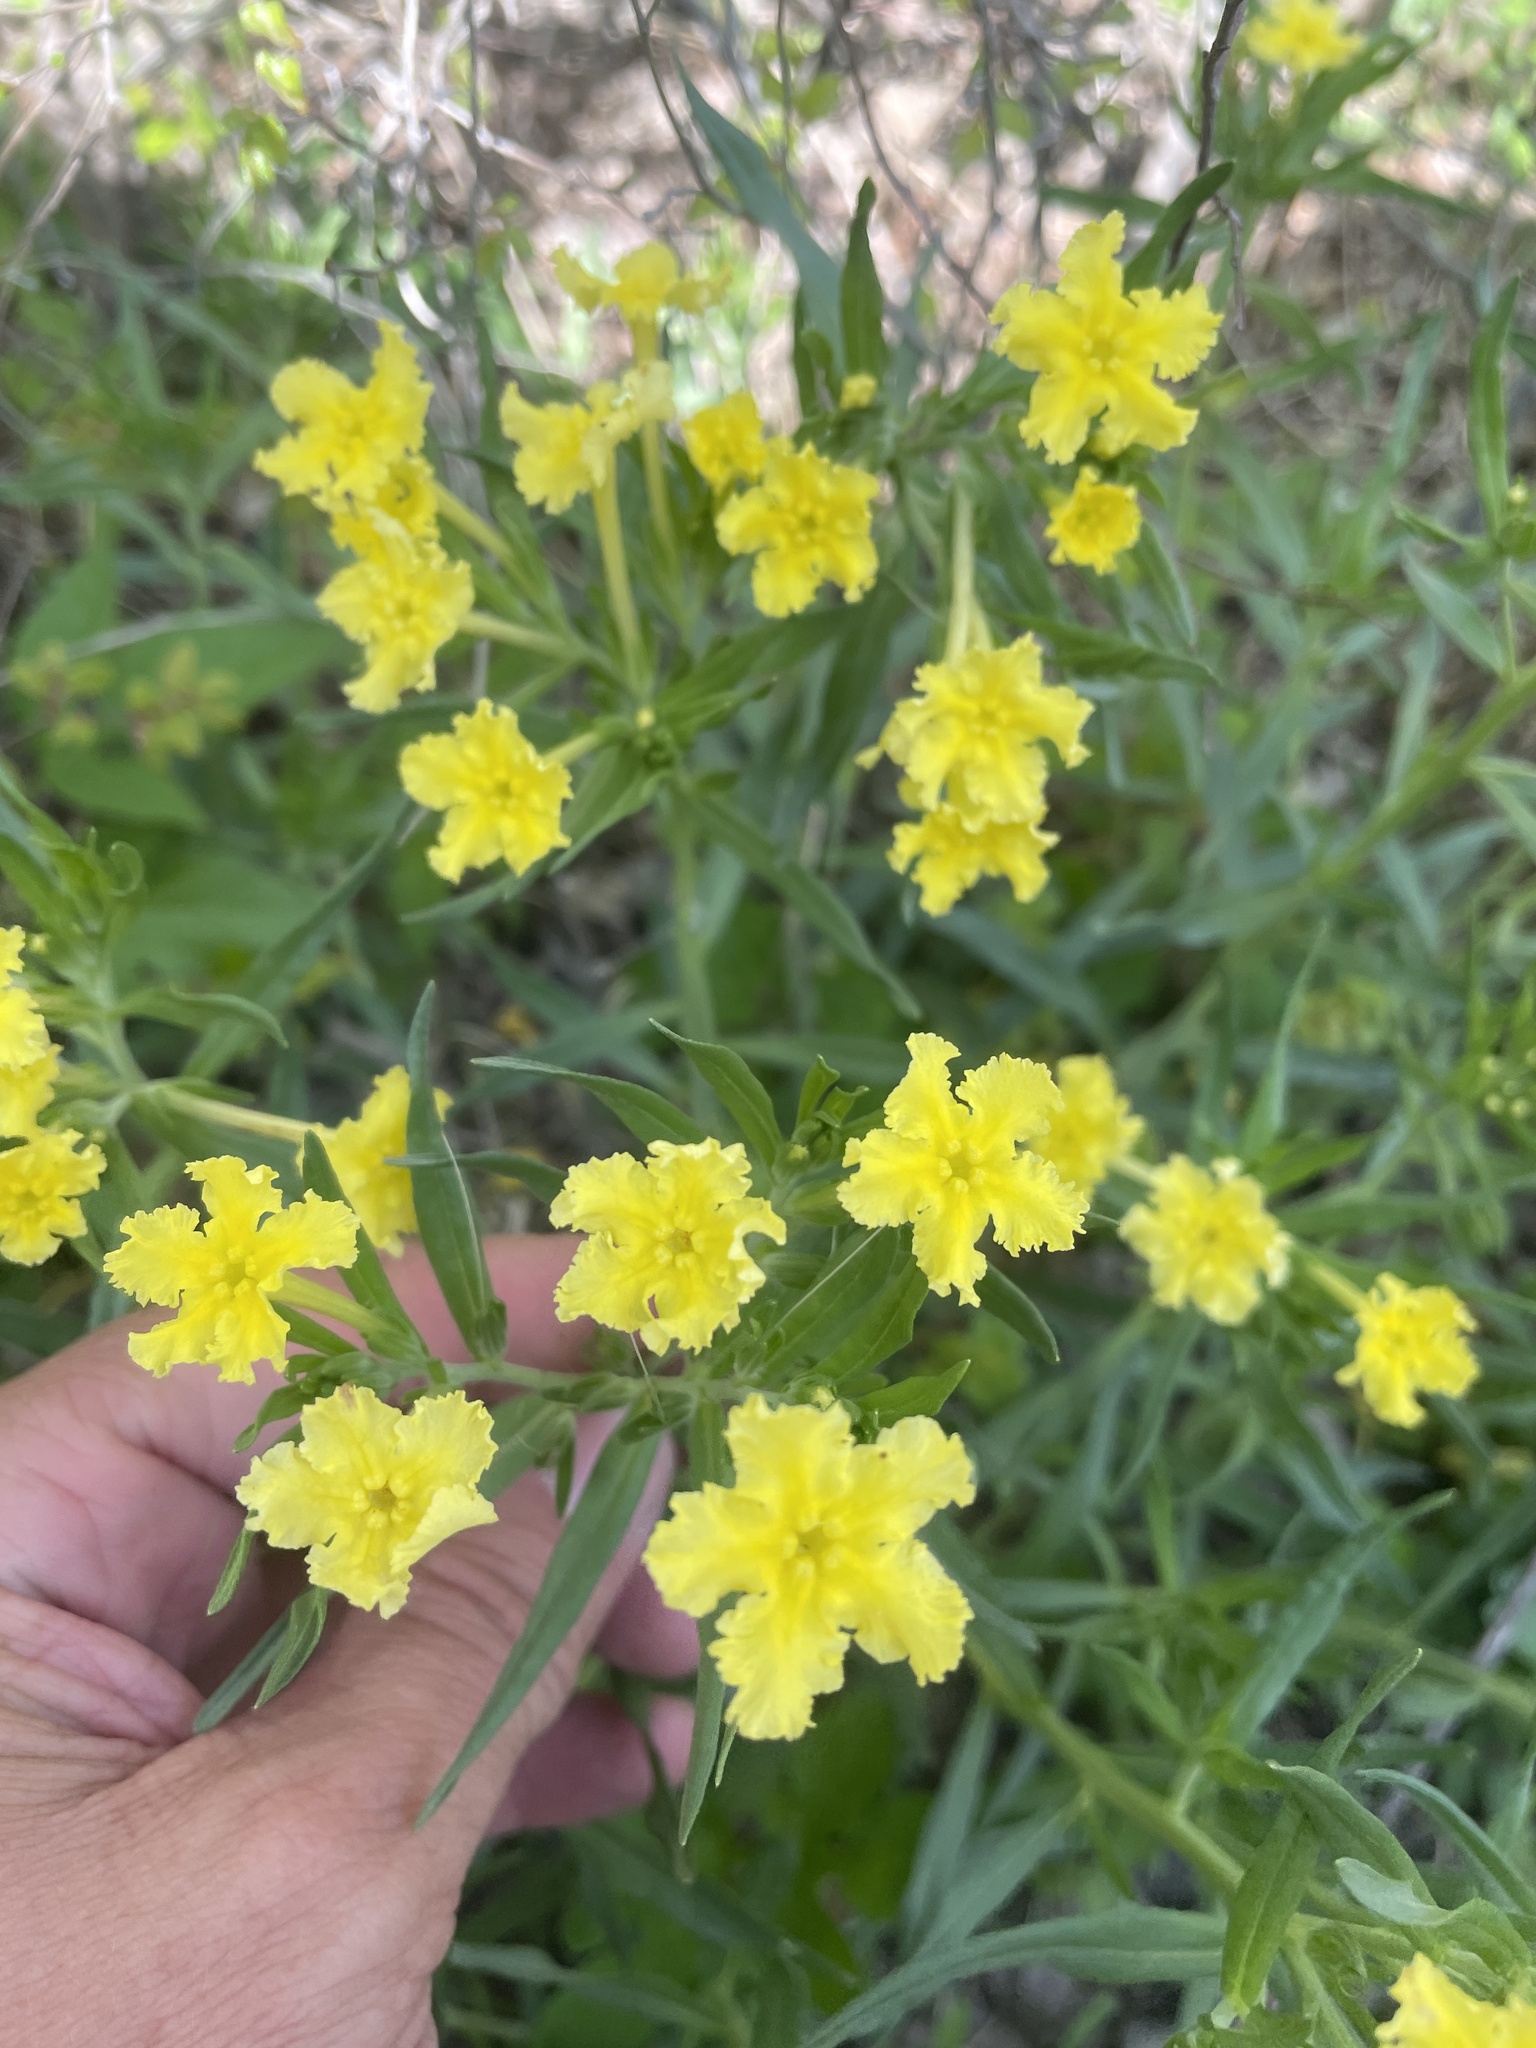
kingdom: Plantae
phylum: Tracheophyta
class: Magnoliopsida
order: Boraginales
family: Boraginaceae
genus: Lithospermum
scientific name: Lithospermum incisum
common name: Fringed gromwell
